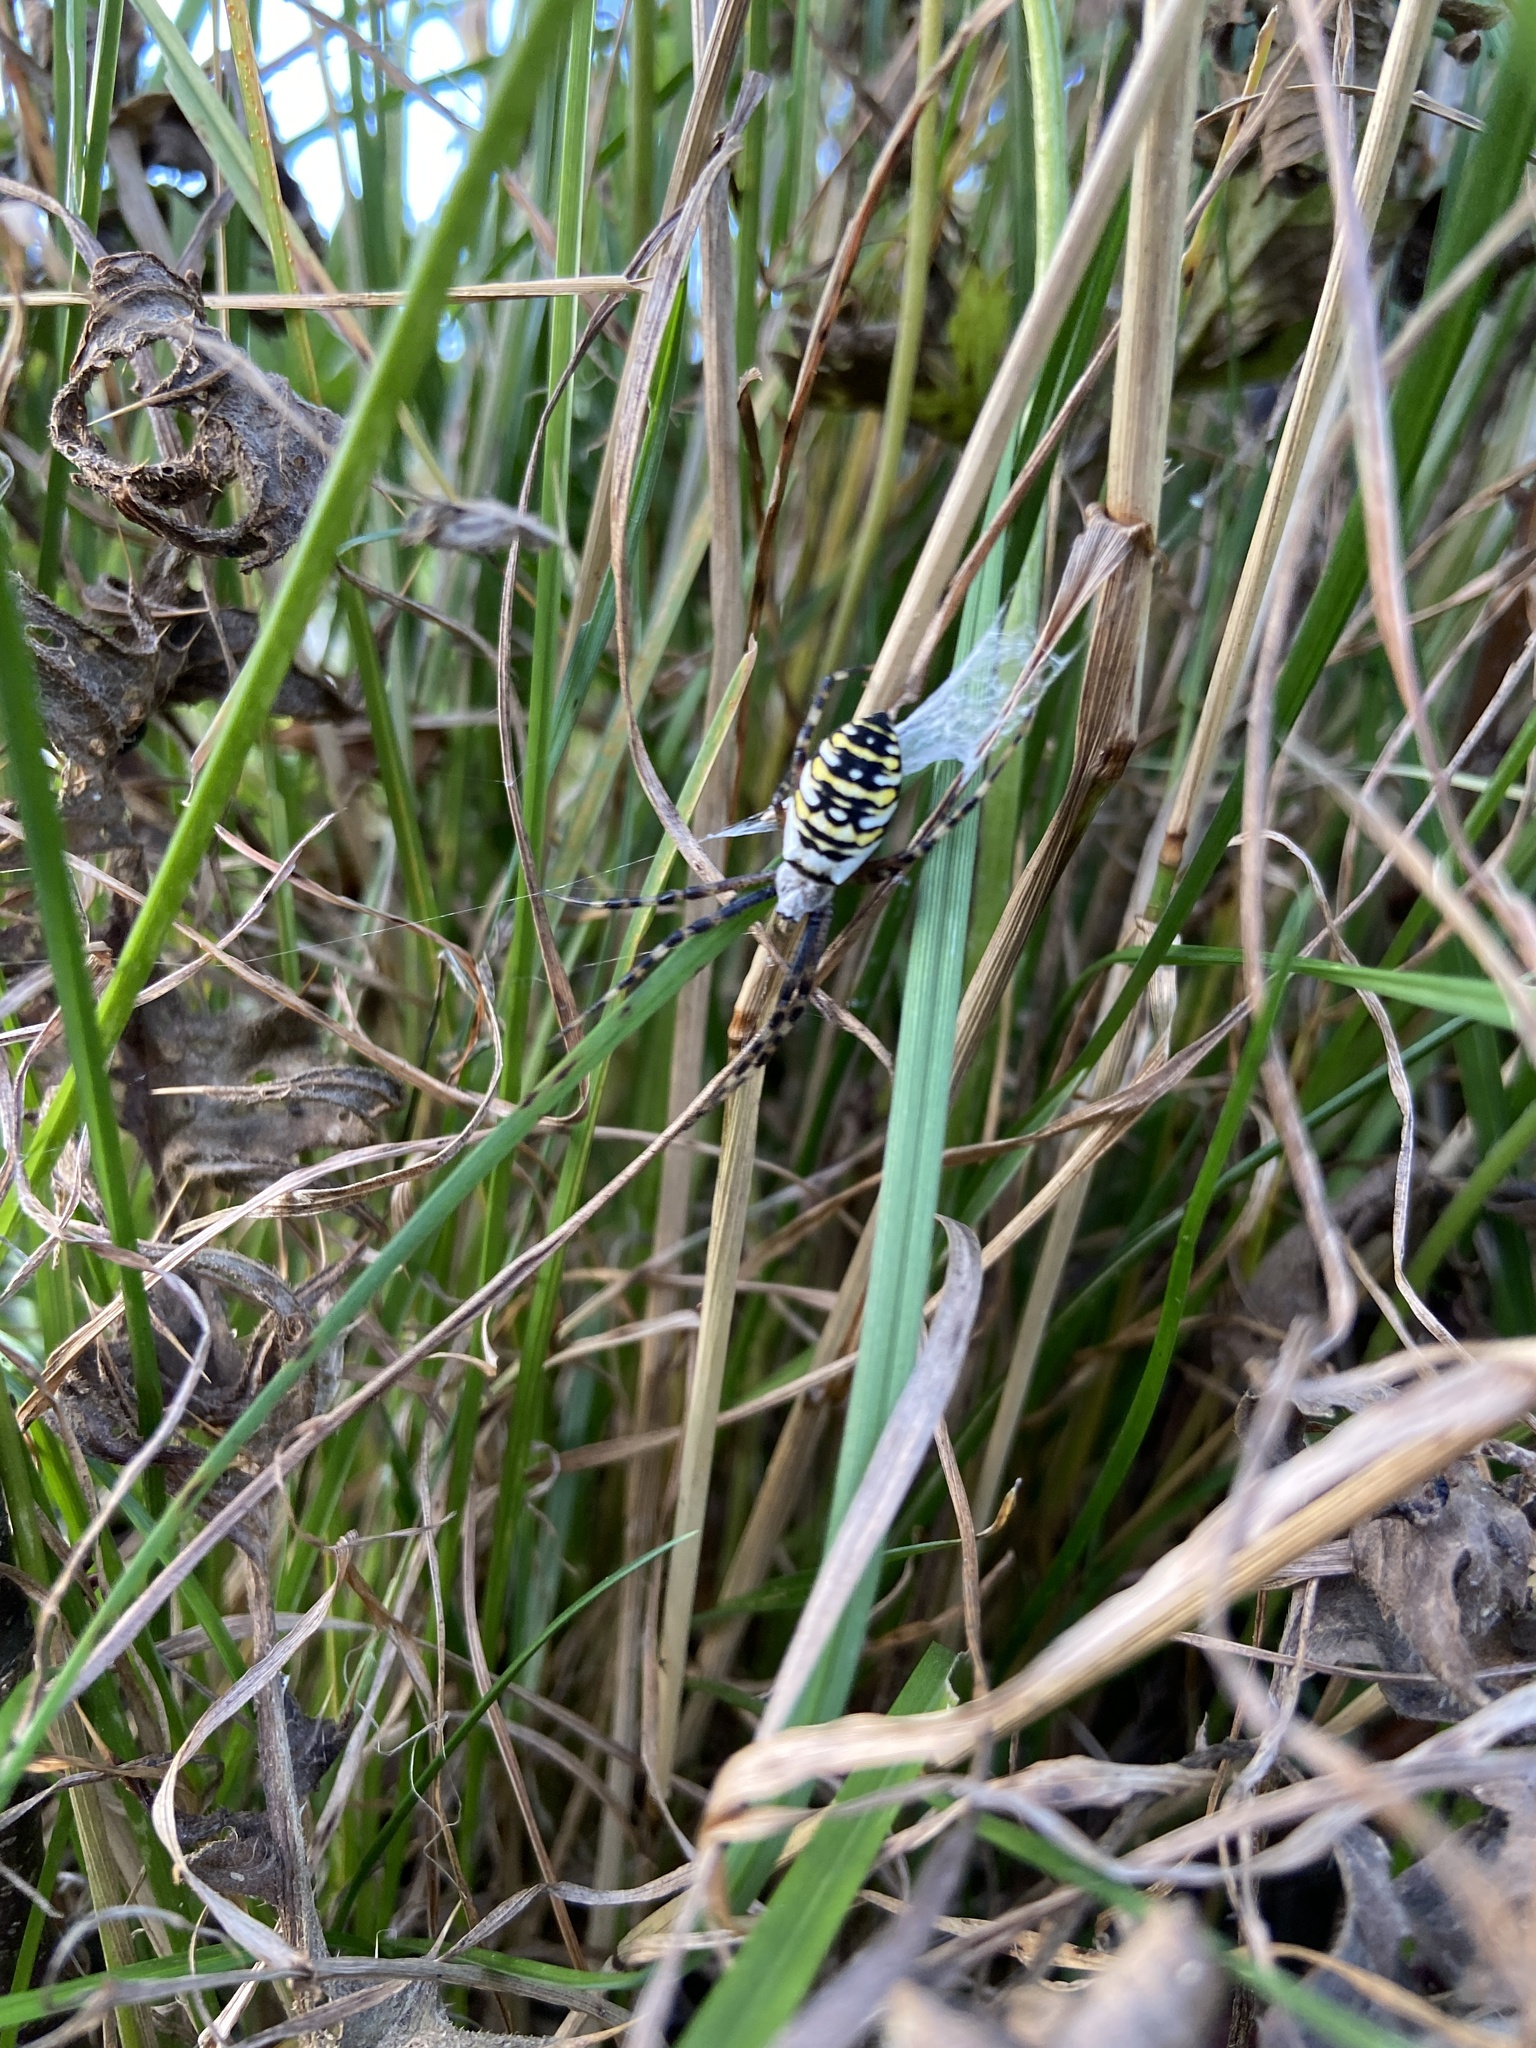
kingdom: Animalia
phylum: Arthropoda
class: Arachnida
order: Araneae
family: Araneidae
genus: Argiope
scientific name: Argiope bruennichi
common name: Wasp spider
